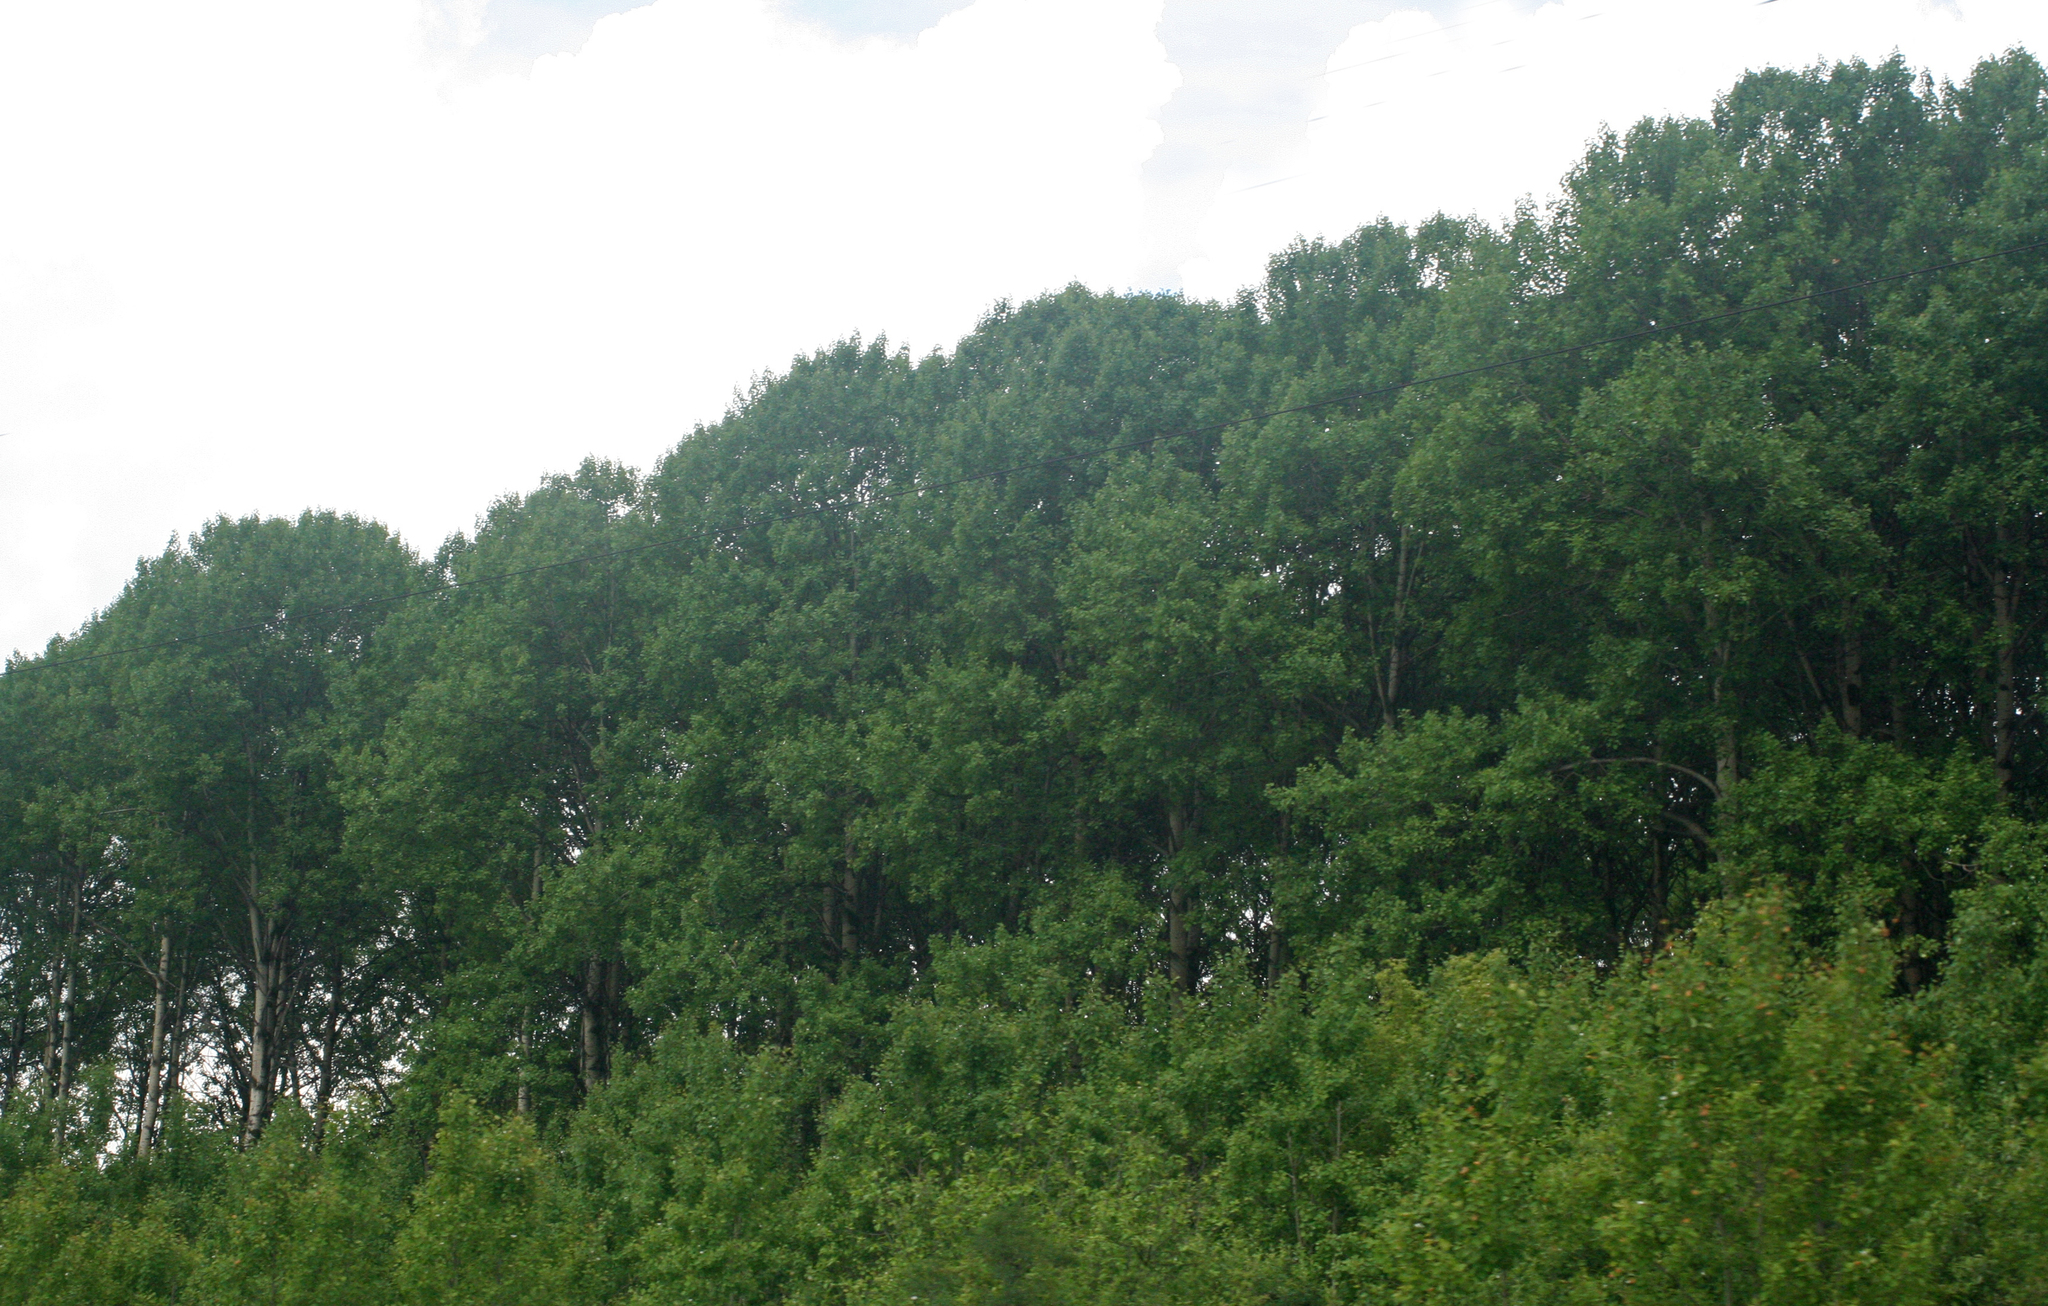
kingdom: Plantae
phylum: Tracheophyta
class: Magnoliopsida
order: Malpighiales
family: Salicaceae
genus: Populus
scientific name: Populus tremula
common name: European aspen
